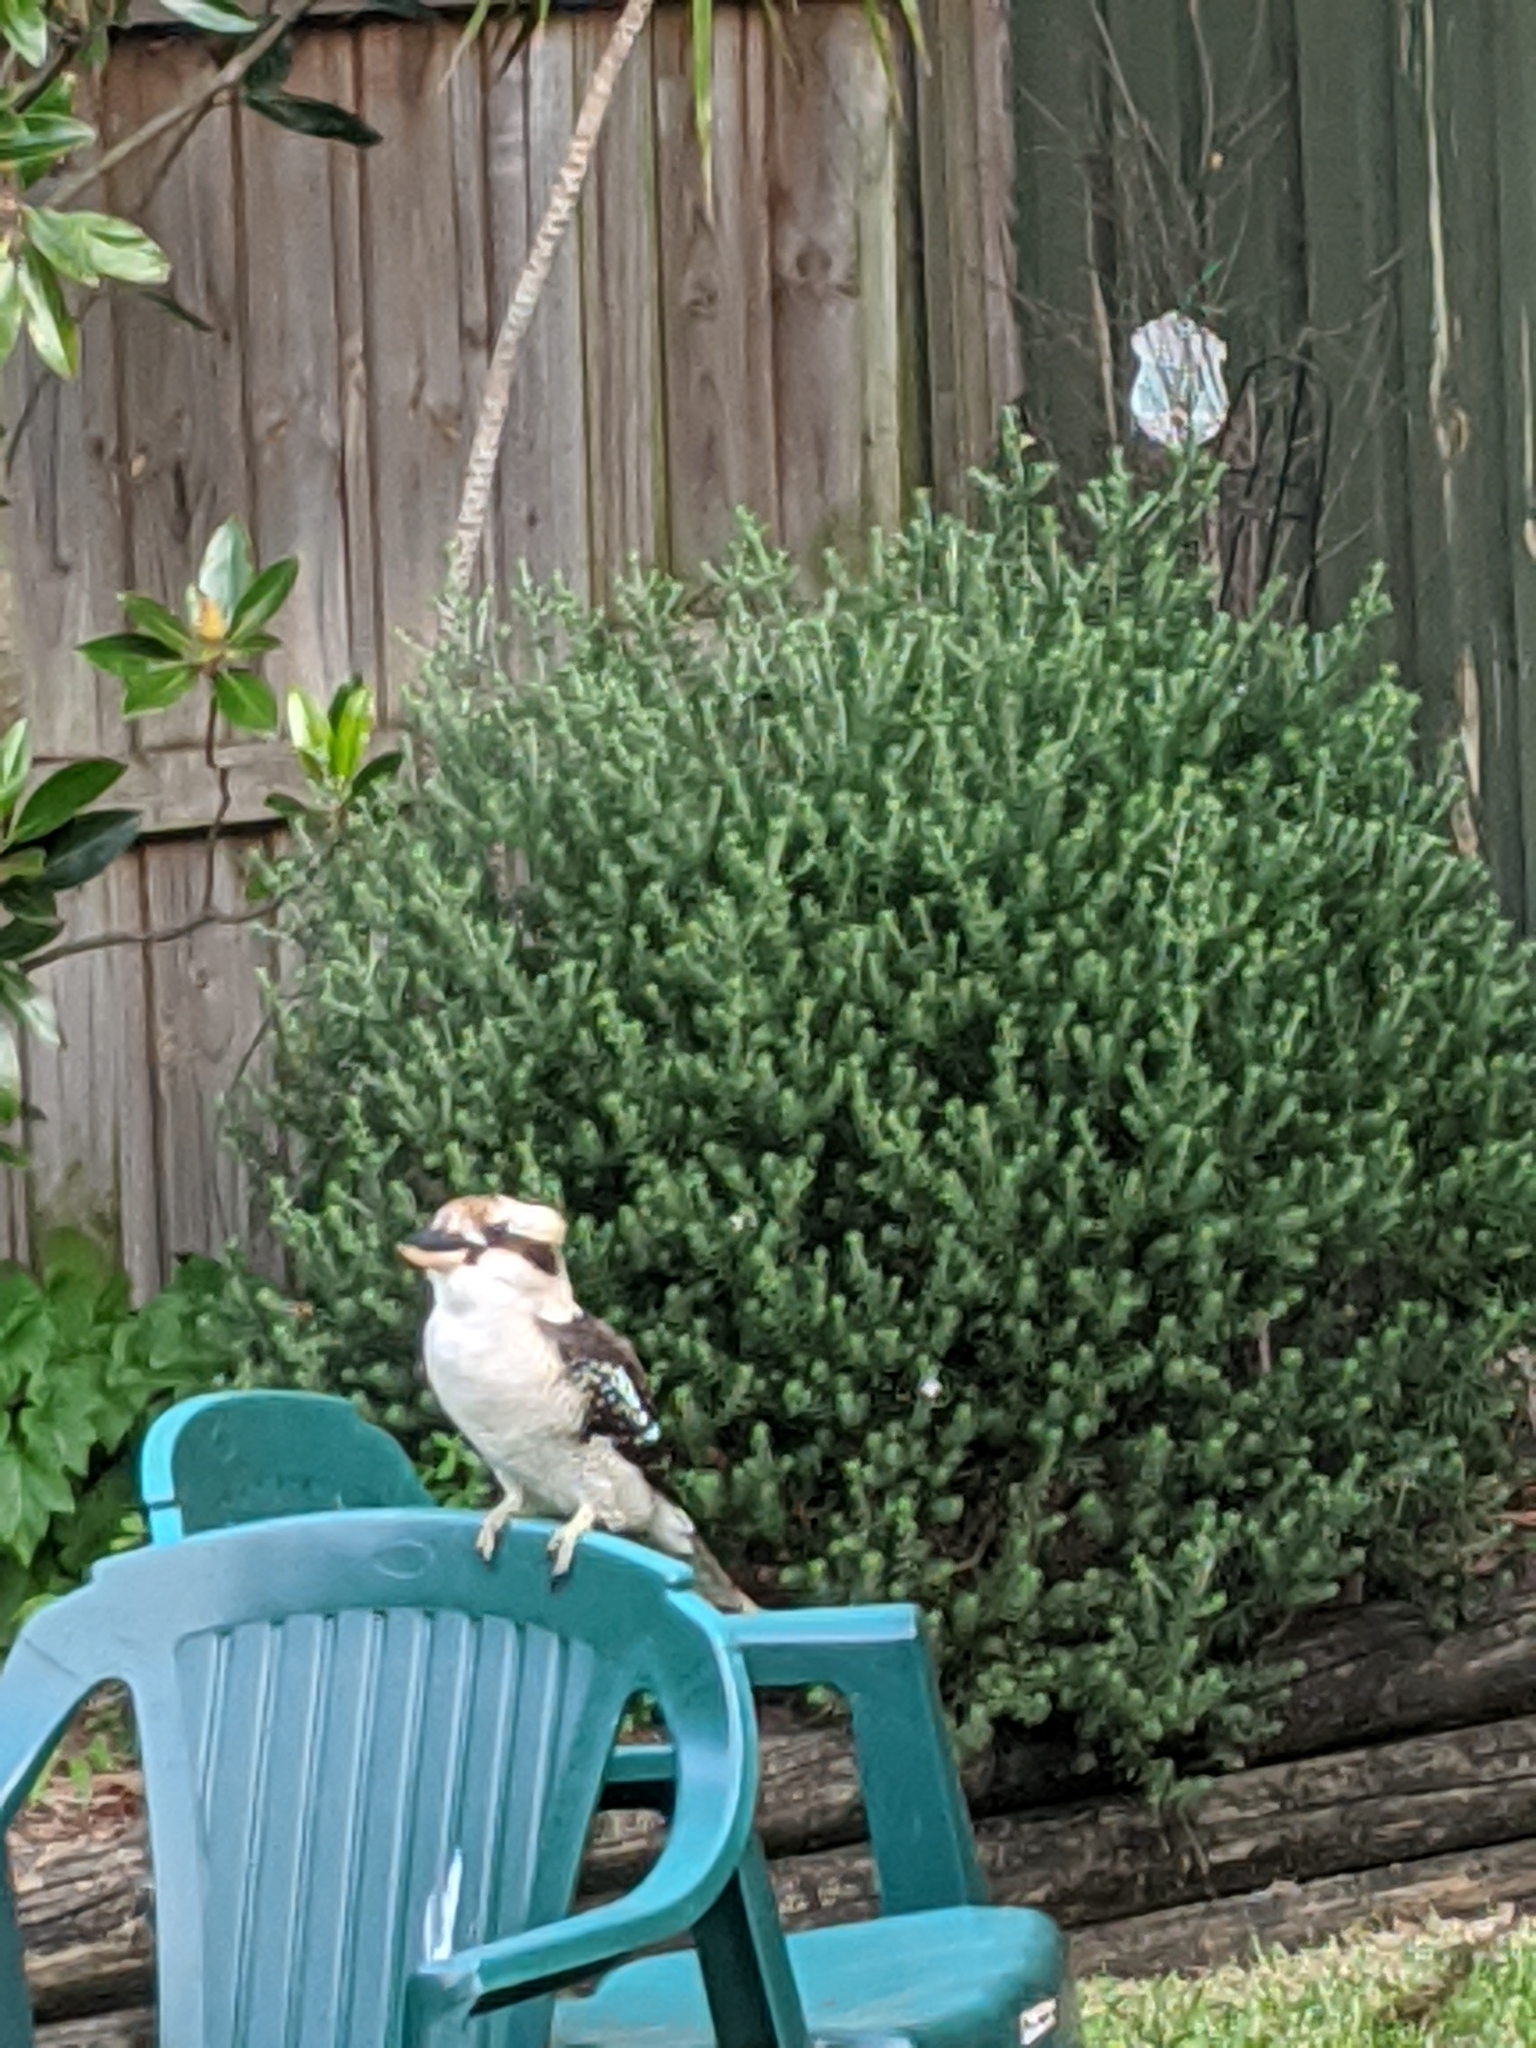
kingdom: Animalia
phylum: Chordata
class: Aves
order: Coraciiformes
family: Alcedinidae
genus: Dacelo
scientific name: Dacelo novaeguineae
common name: Laughing kookaburra
